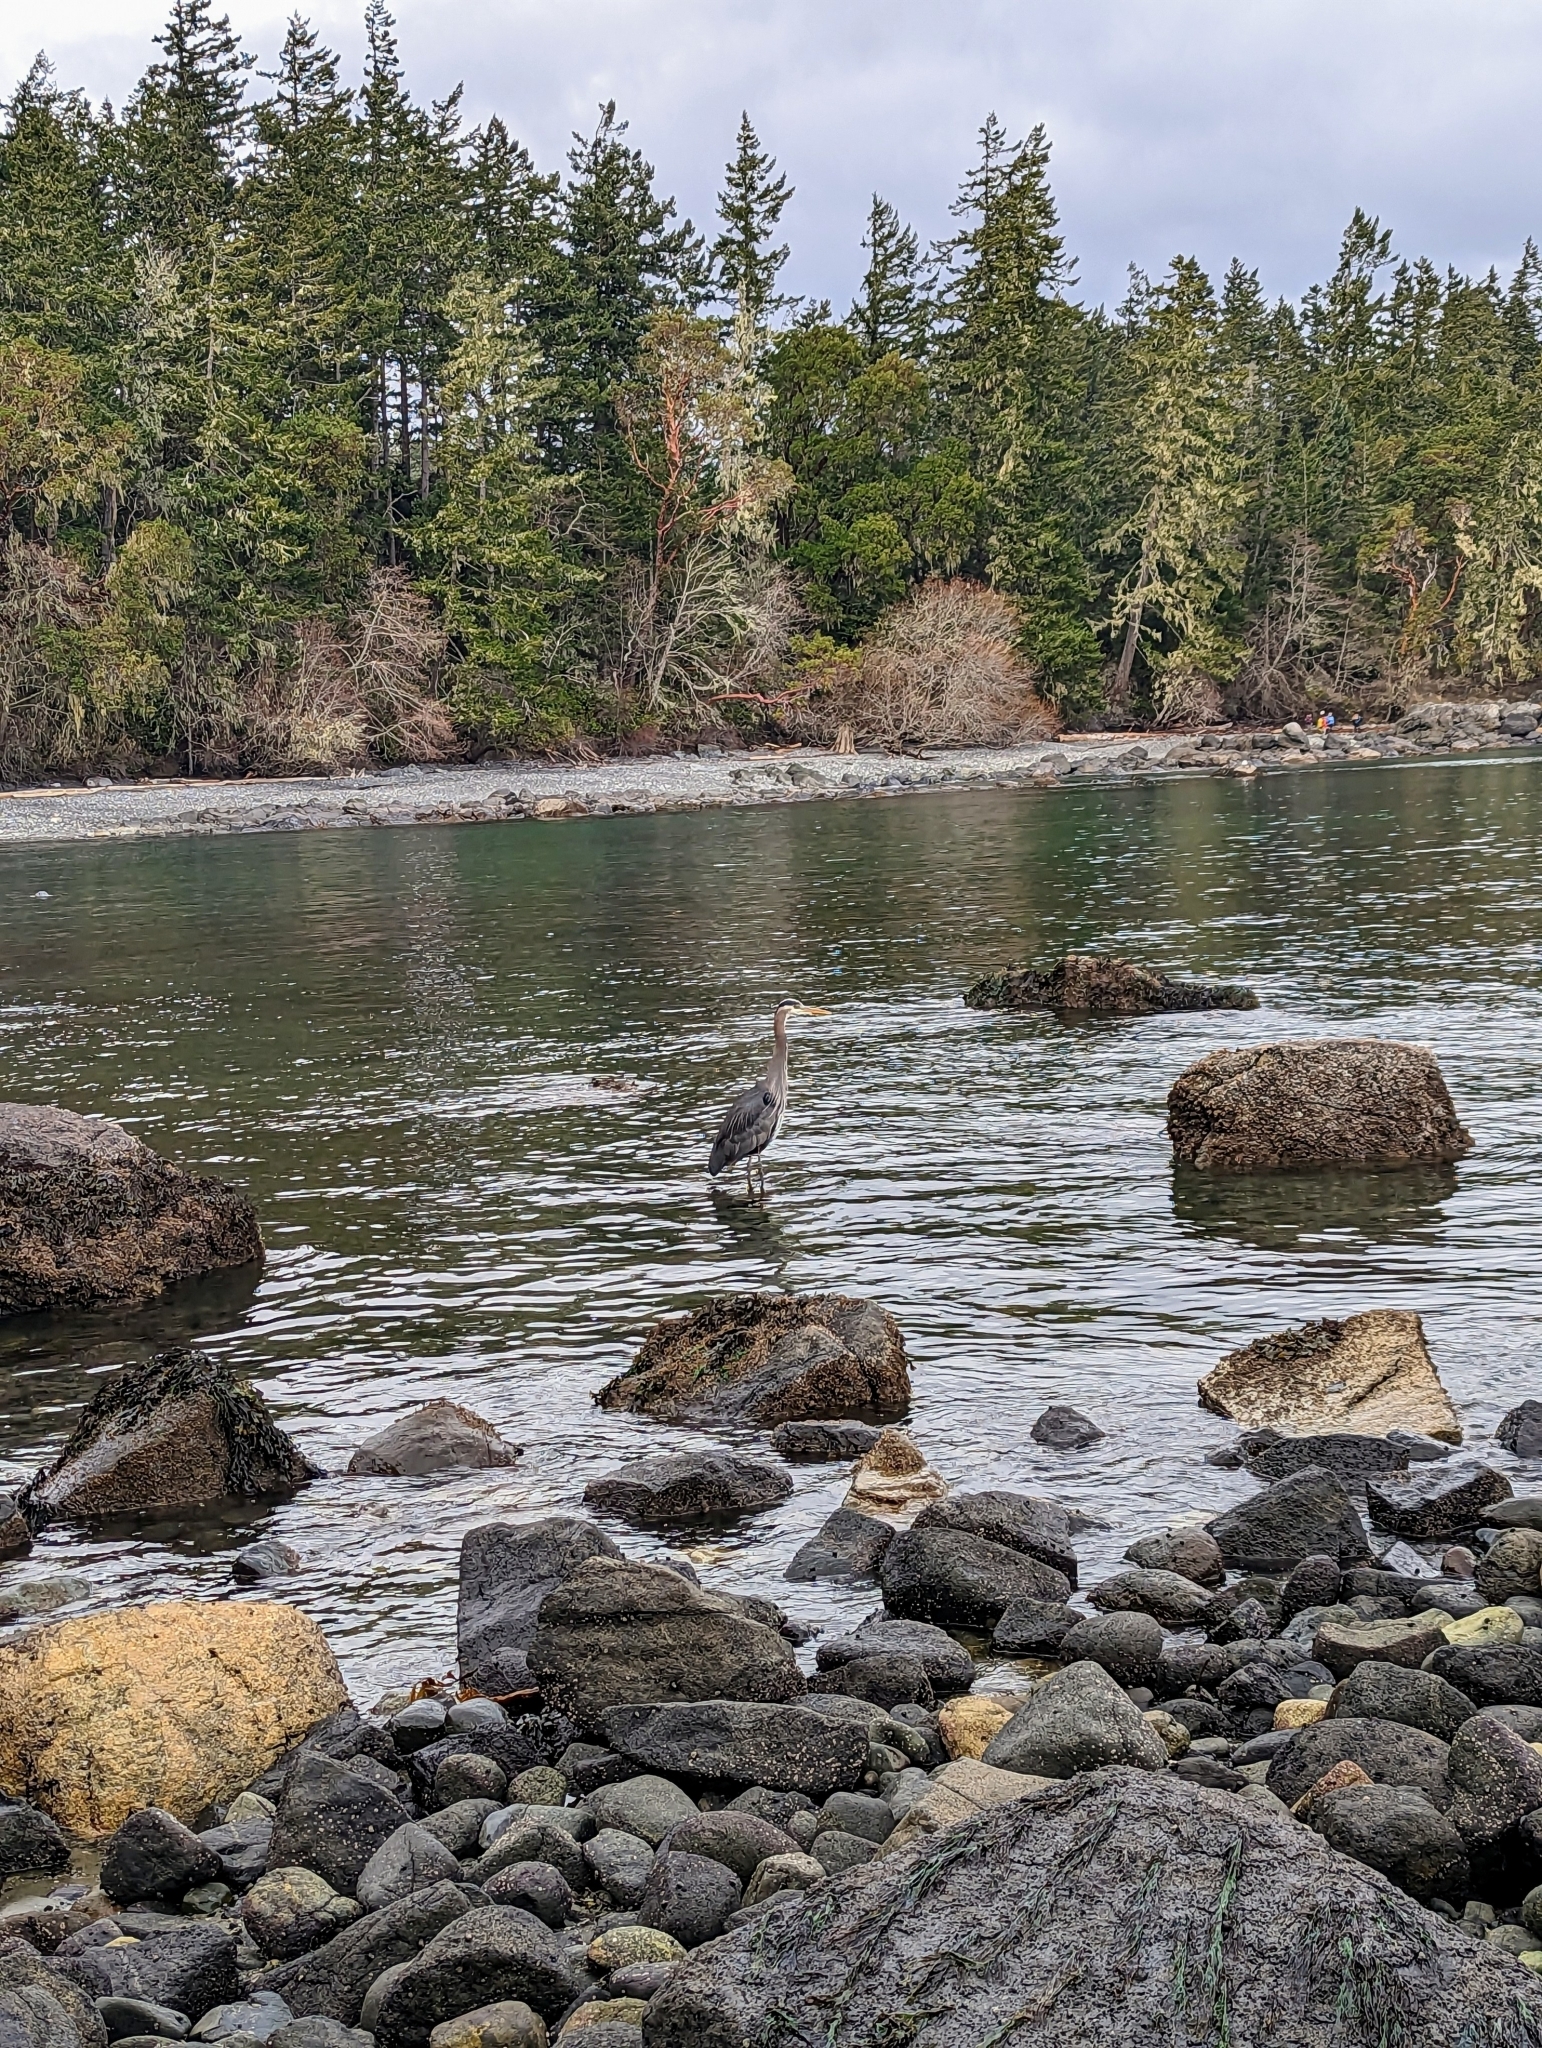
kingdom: Animalia
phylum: Chordata
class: Aves
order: Pelecaniformes
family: Ardeidae
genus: Ardea
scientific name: Ardea herodias
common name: Great blue heron
